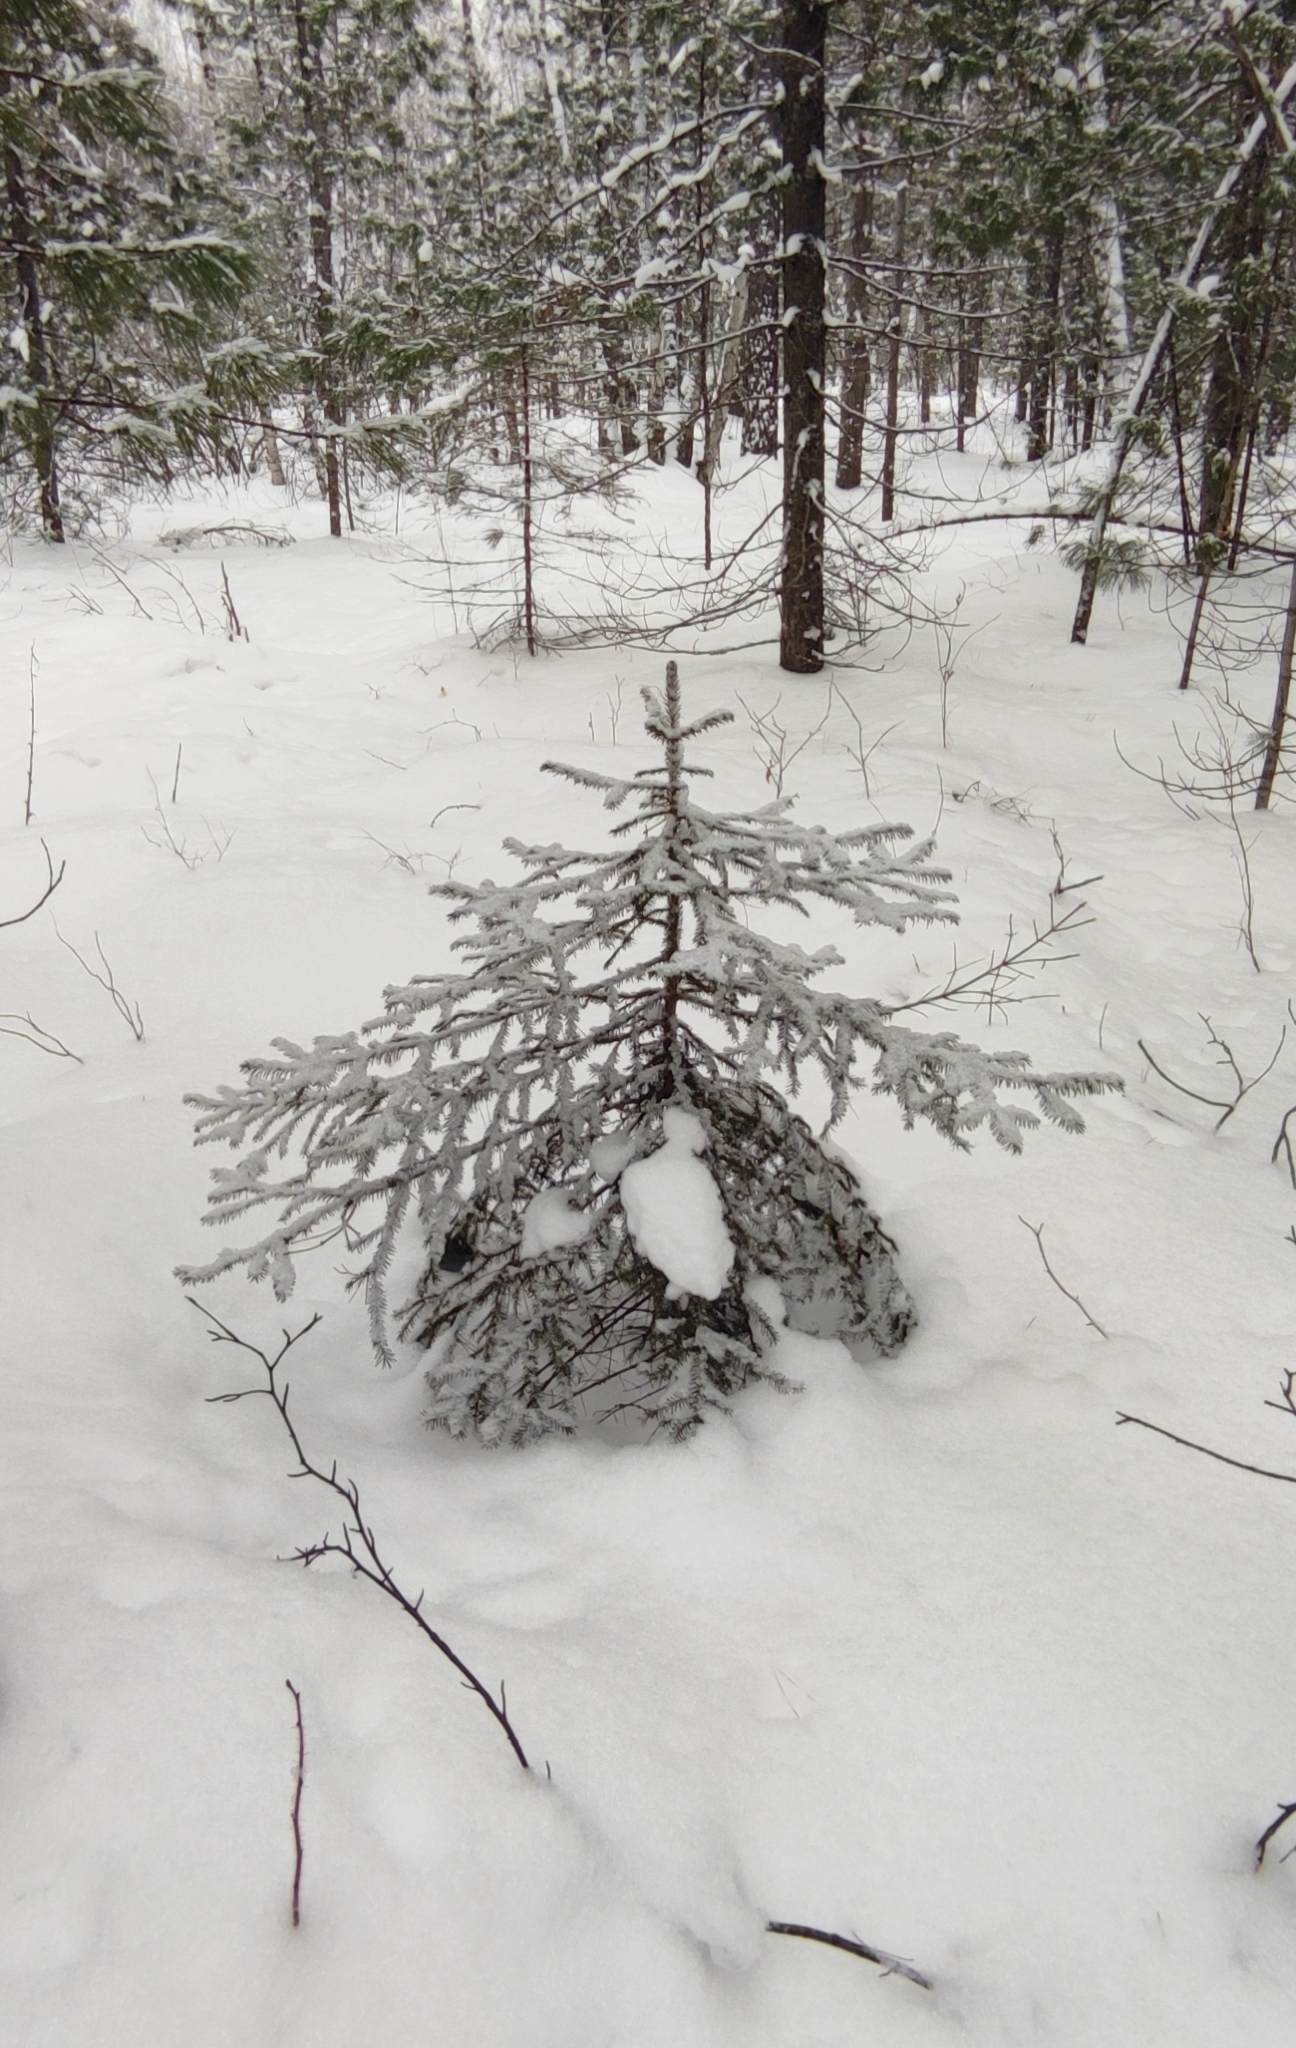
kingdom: Plantae
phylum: Tracheophyta
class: Pinopsida
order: Pinales
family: Pinaceae
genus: Picea
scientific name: Picea obovata
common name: Siberian spruce
